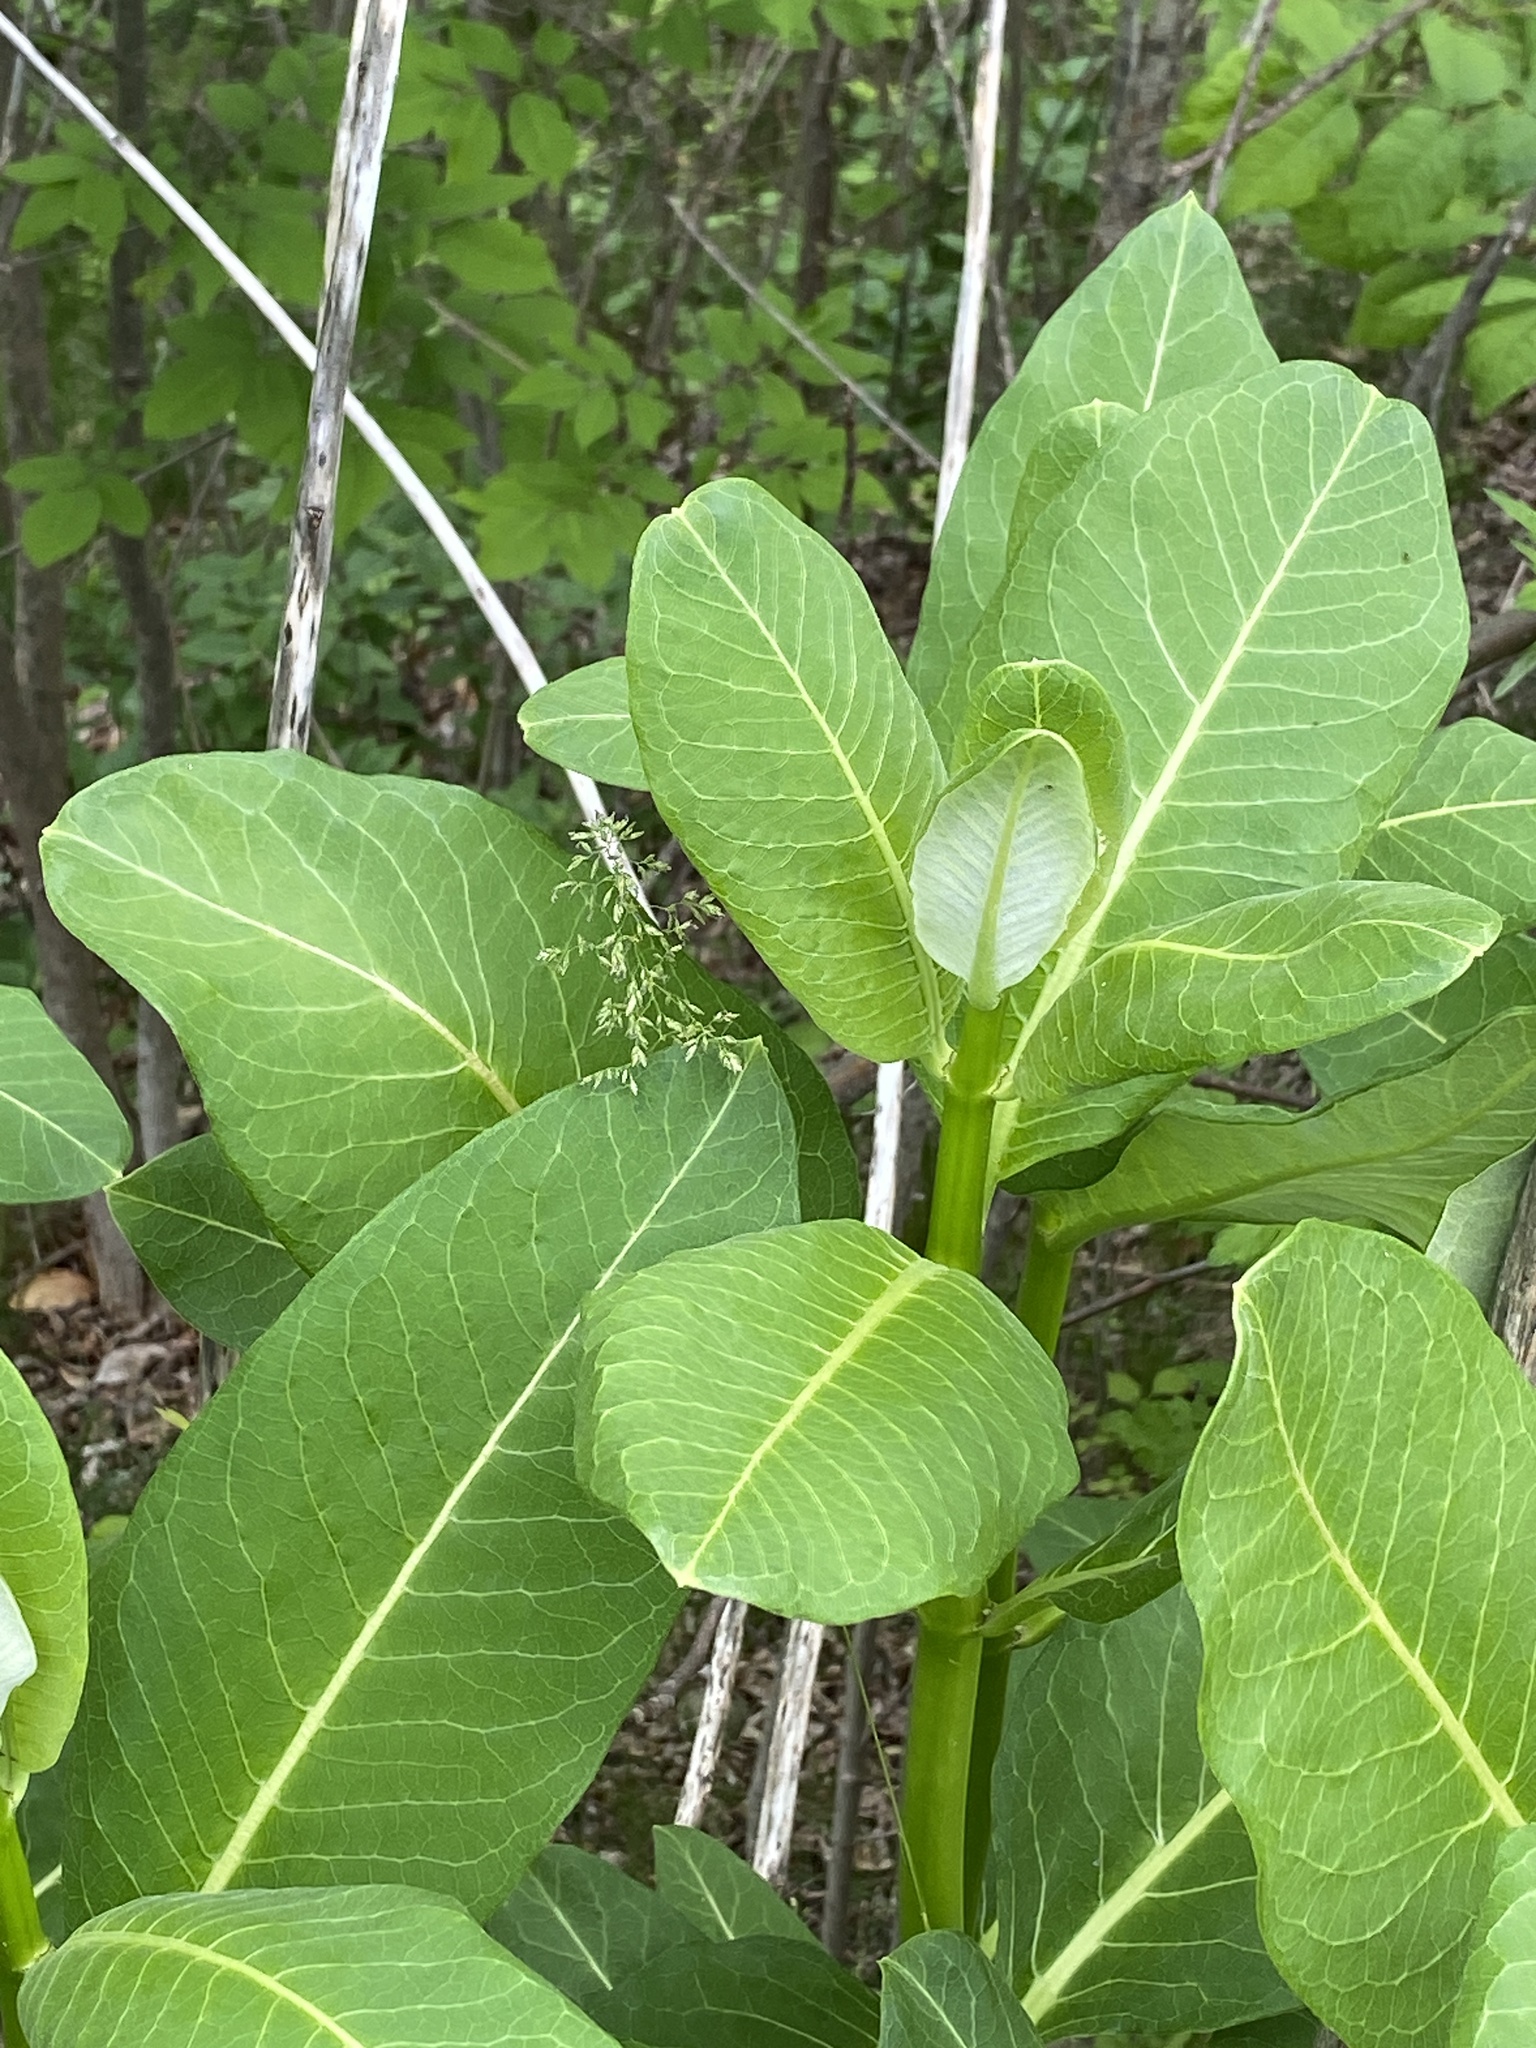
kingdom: Plantae
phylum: Tracheophyta
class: Magnoliopsida
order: Gentianales
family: Apocynaceae
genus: Asclepias
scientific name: Asclepias syriaca
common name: Common milkweed
